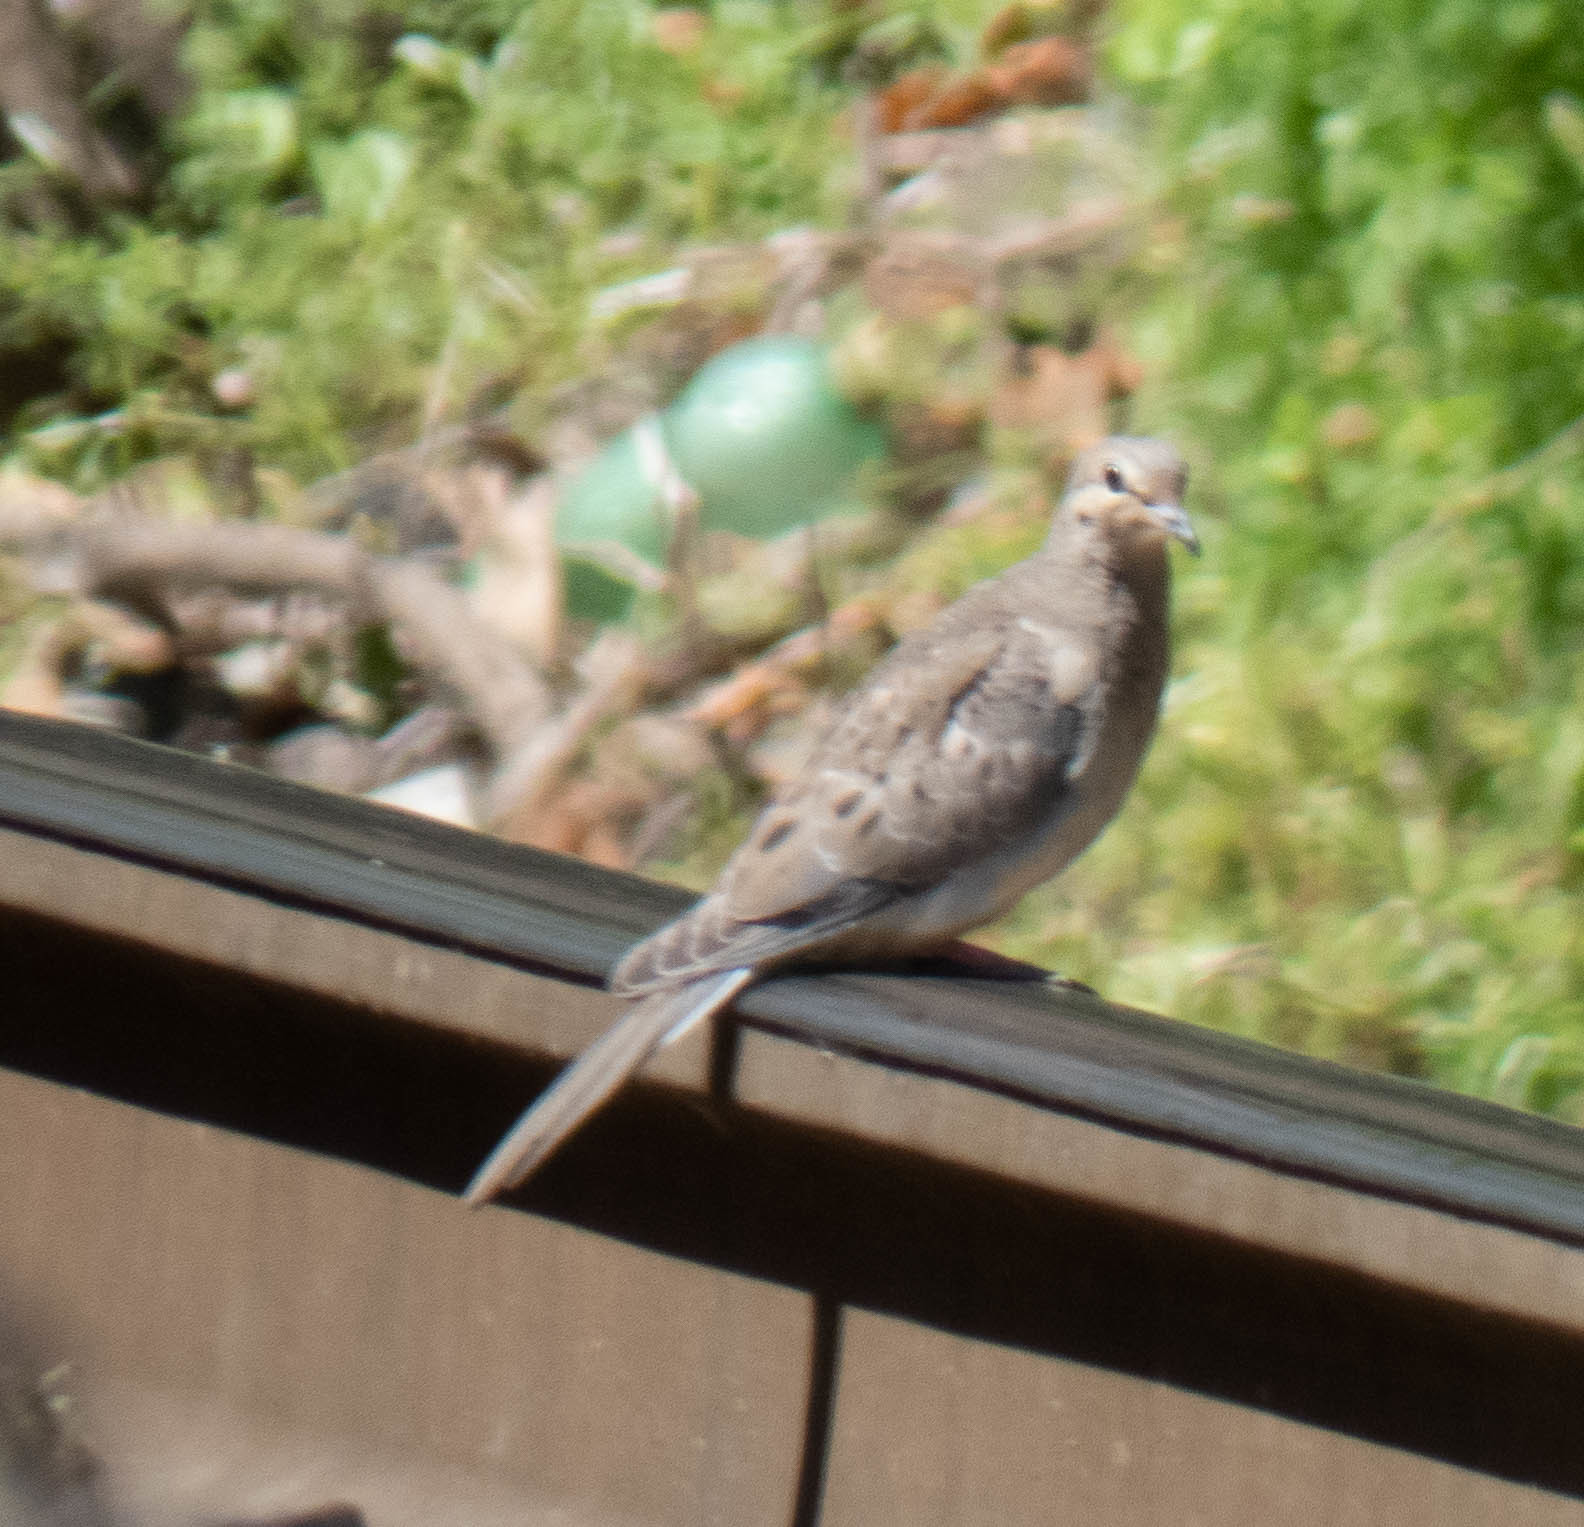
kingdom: Animalia
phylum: Chordata
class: Aves
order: Columbiformes
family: Columbidae
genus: Zenaida
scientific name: Zenaida macroura
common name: Mourning dove
